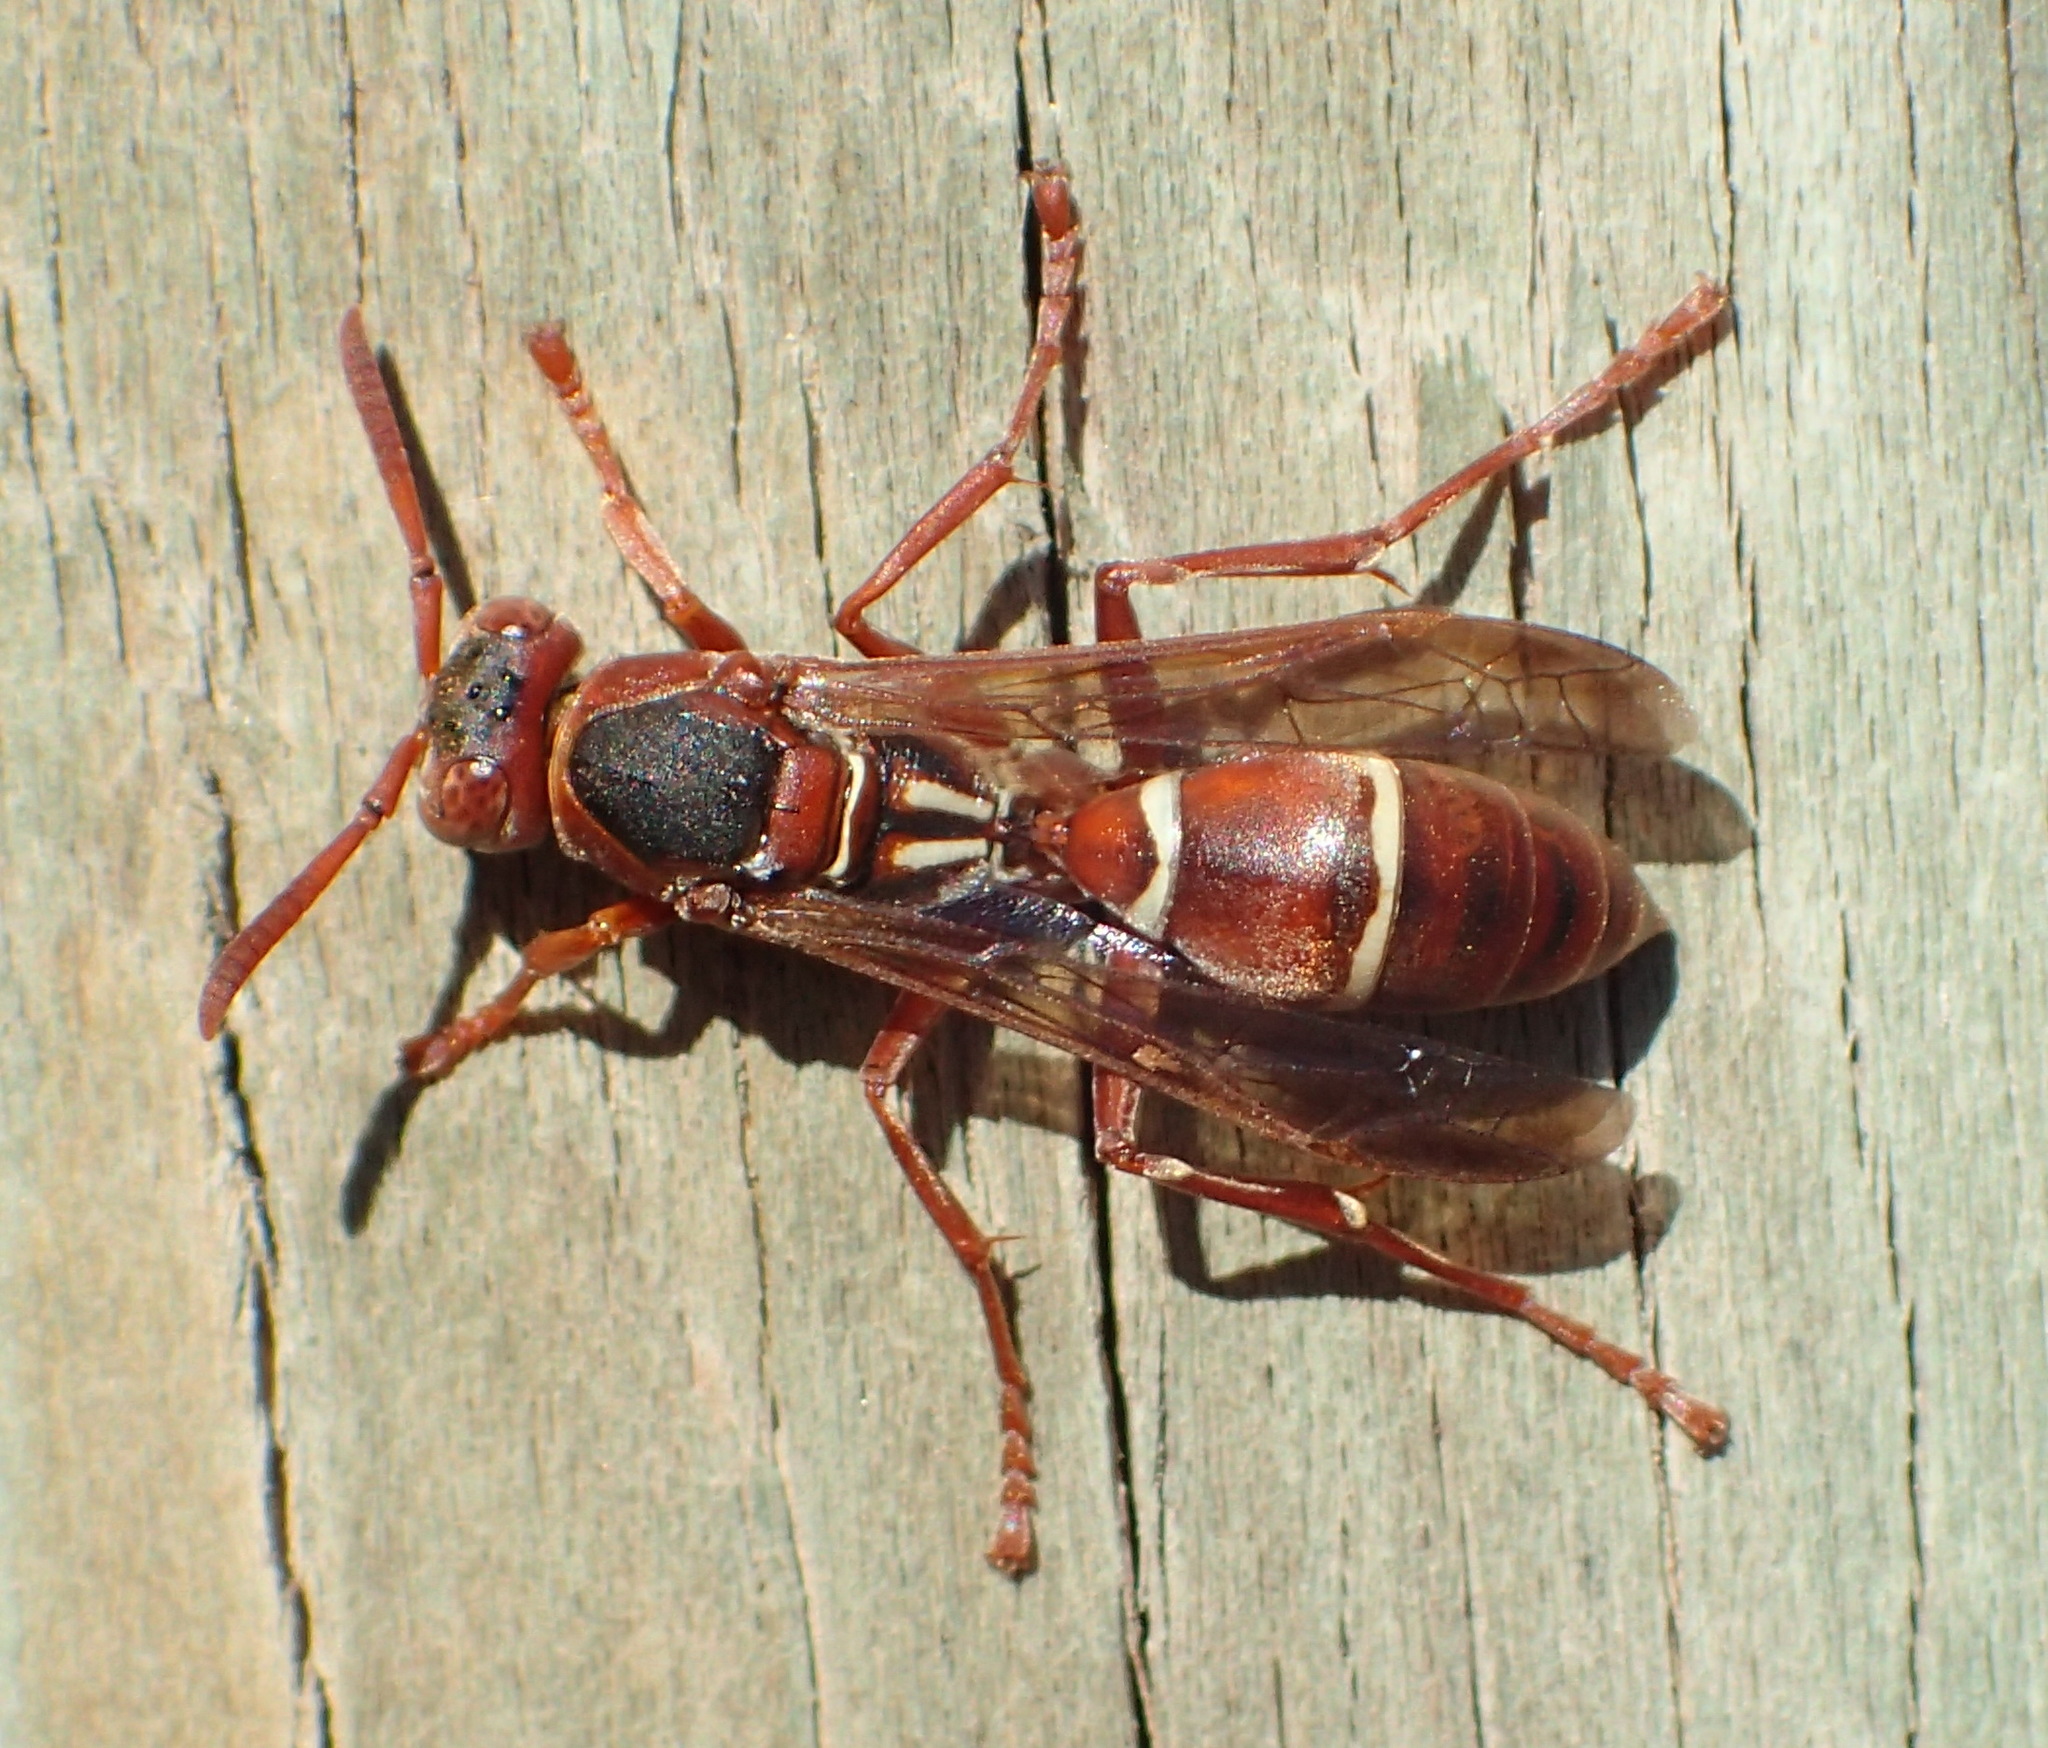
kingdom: Animalia
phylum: Arthropoda
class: Insecta
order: Hymenoptera
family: Eumenidae
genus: Polistes
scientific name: Polistes marginalis
